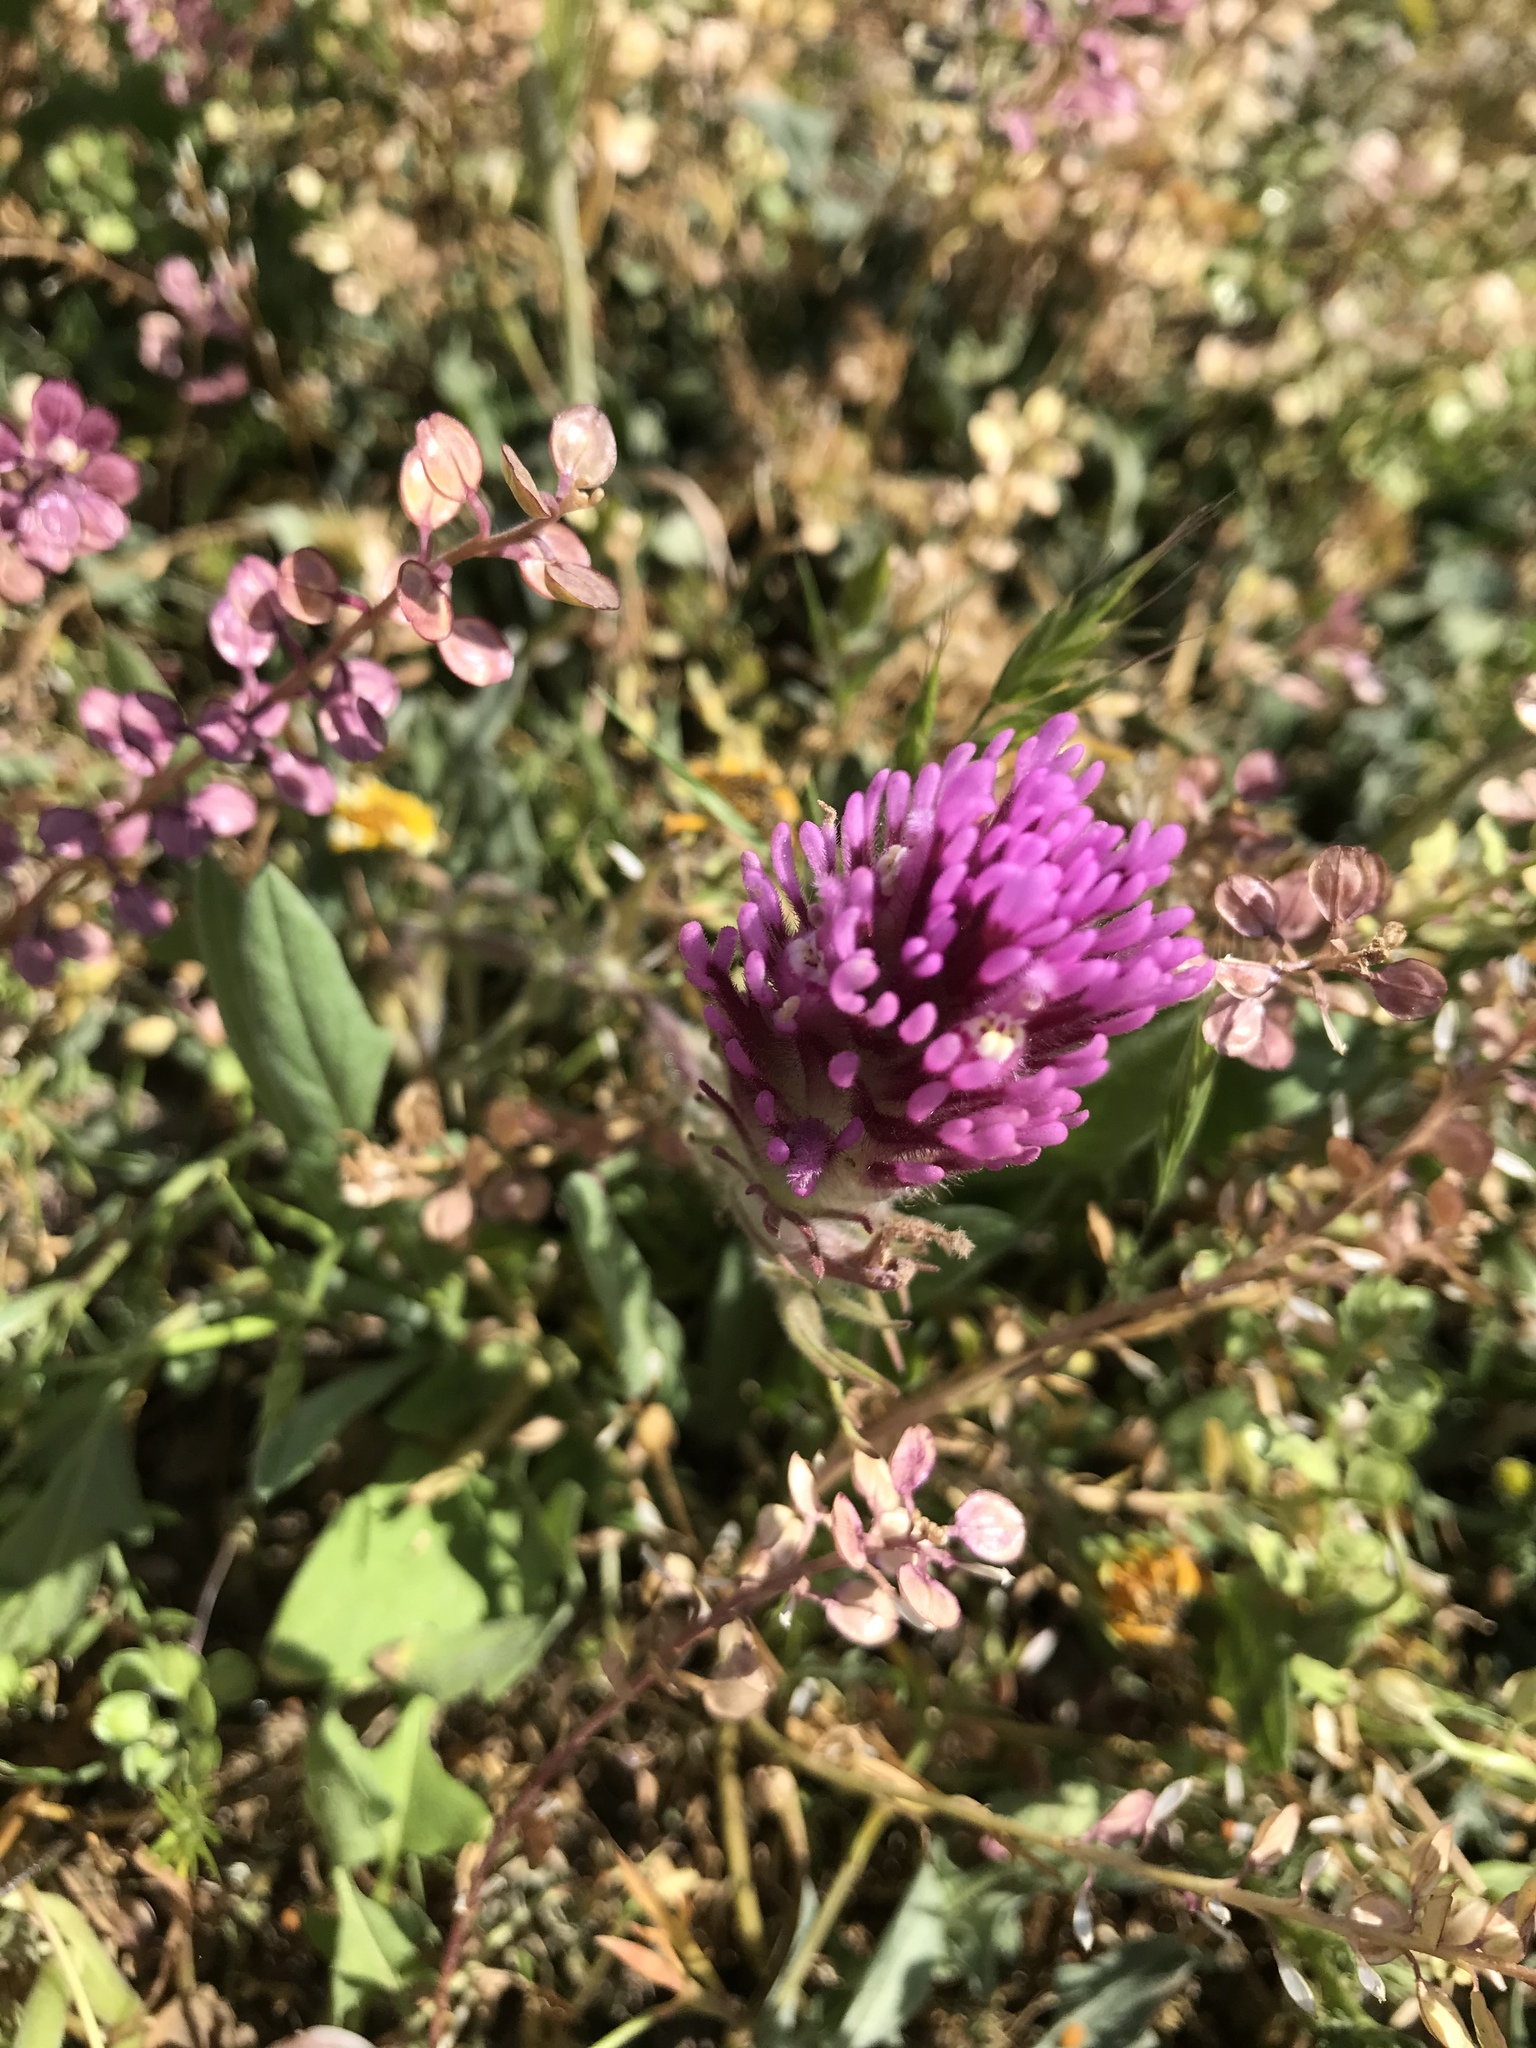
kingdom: Plantae
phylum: Tracheophyta
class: Magnoliopsida
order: Lamiales
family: Orobanchaceae
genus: Castilleja
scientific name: Castilleja exserta
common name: Purple owl-clover
